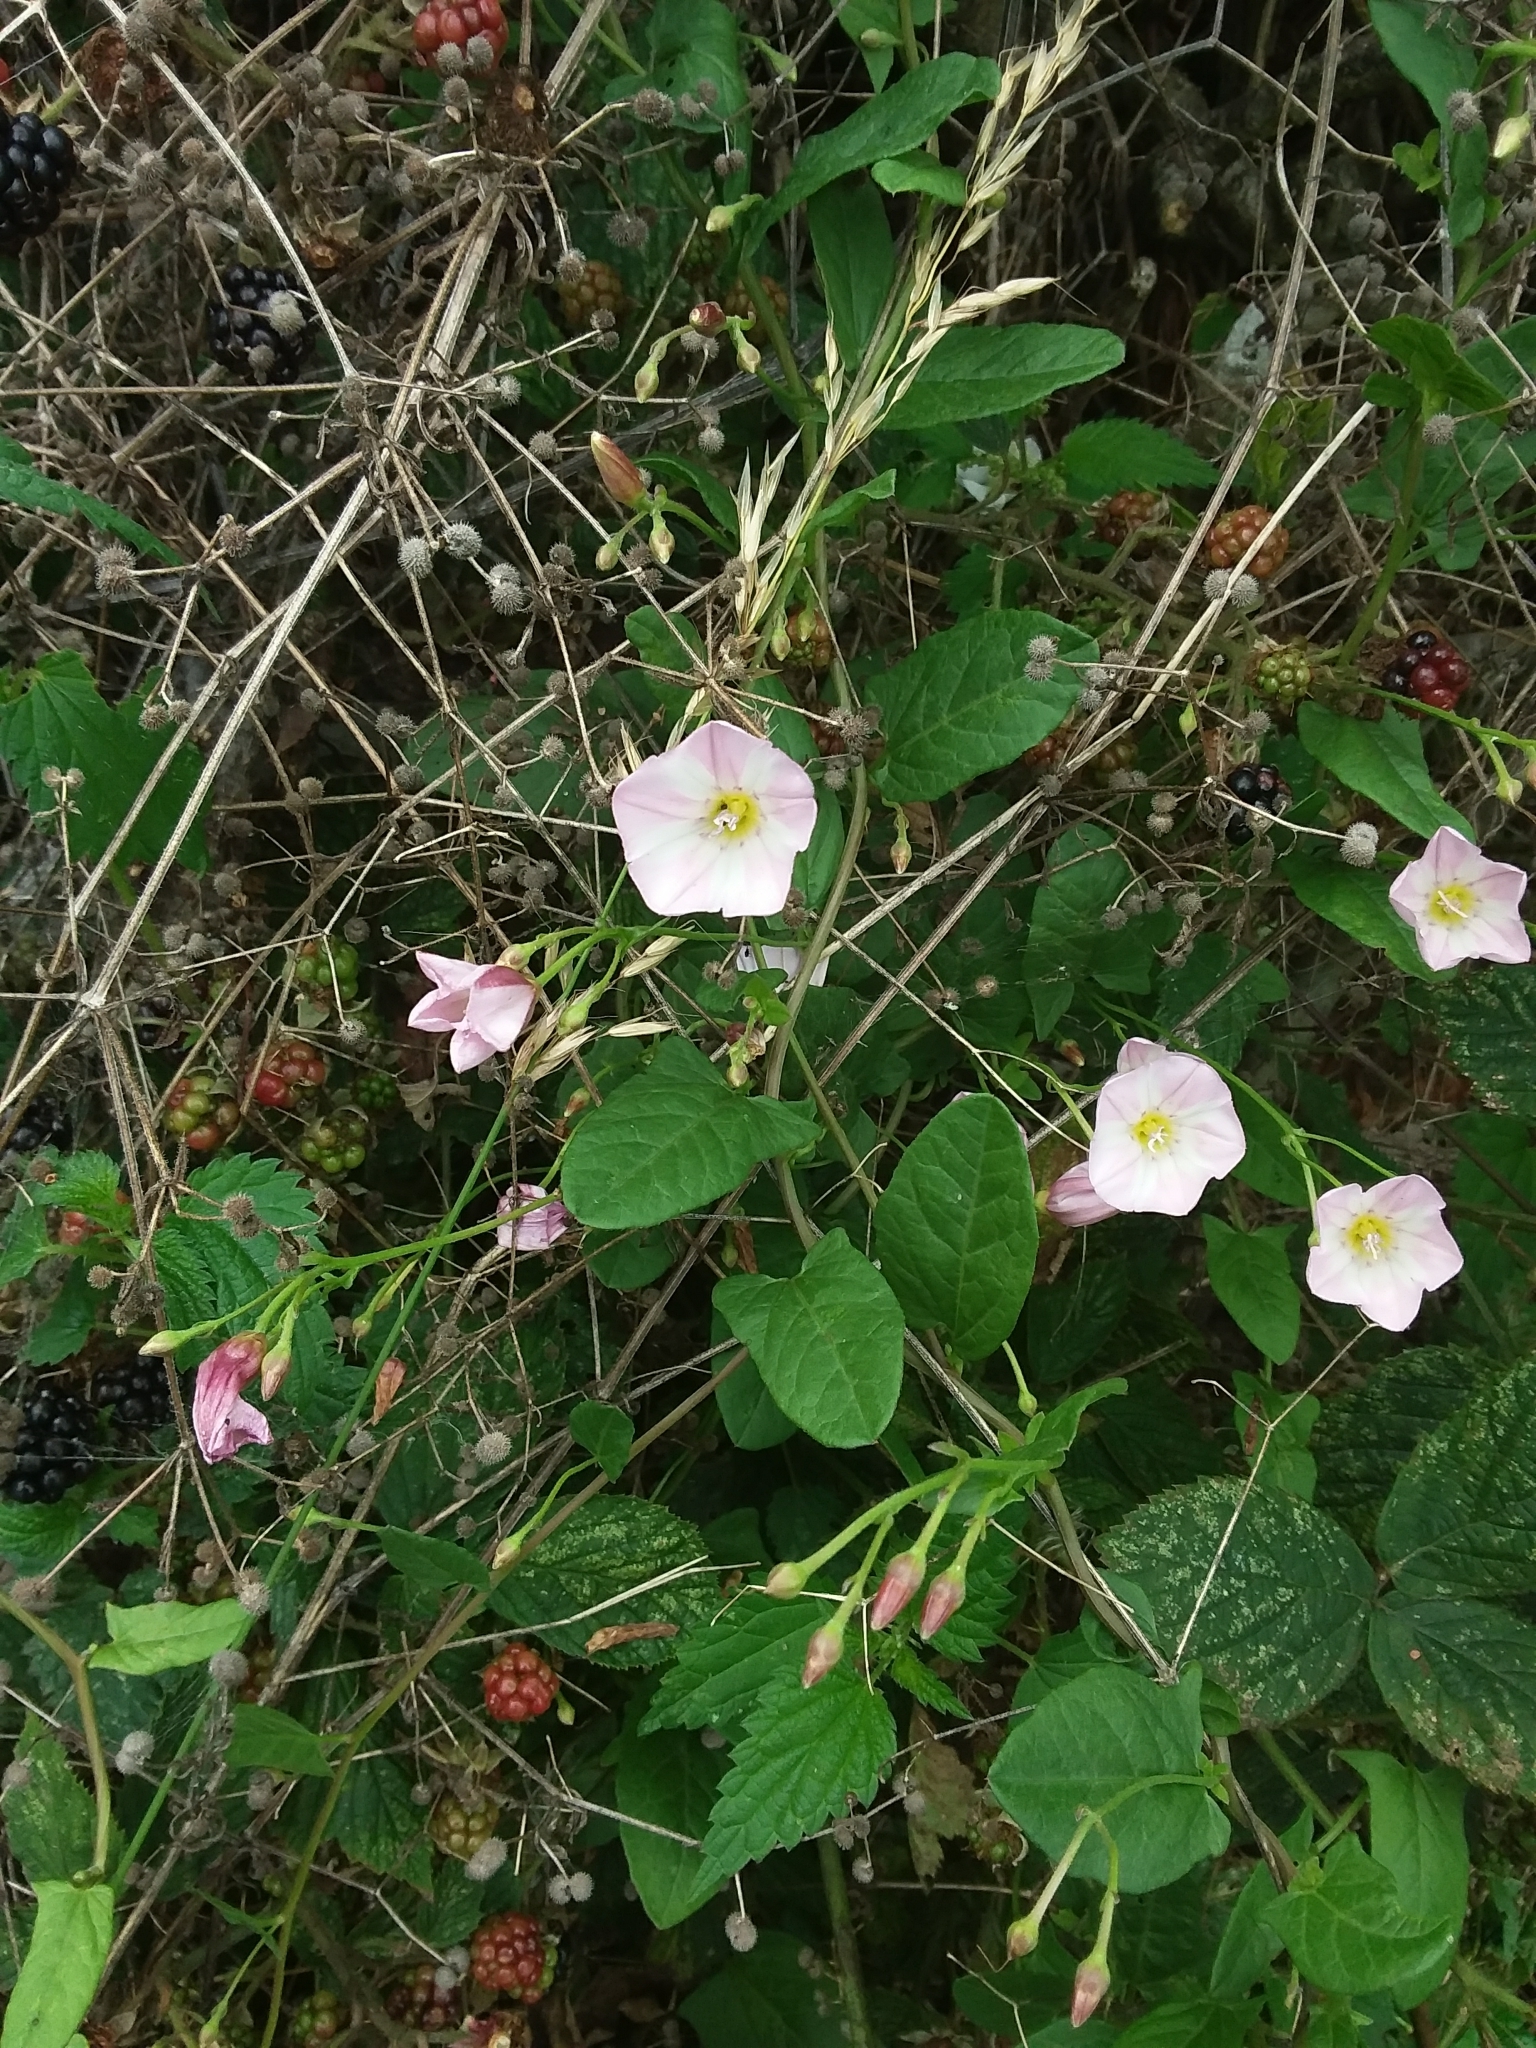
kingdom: Plantae
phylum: Tracheophyta
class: Magnoliopsida
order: Solanales
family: Convolvulaceae
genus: Convolvulus
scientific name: Convolvulus arvensis
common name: Field bindweed
